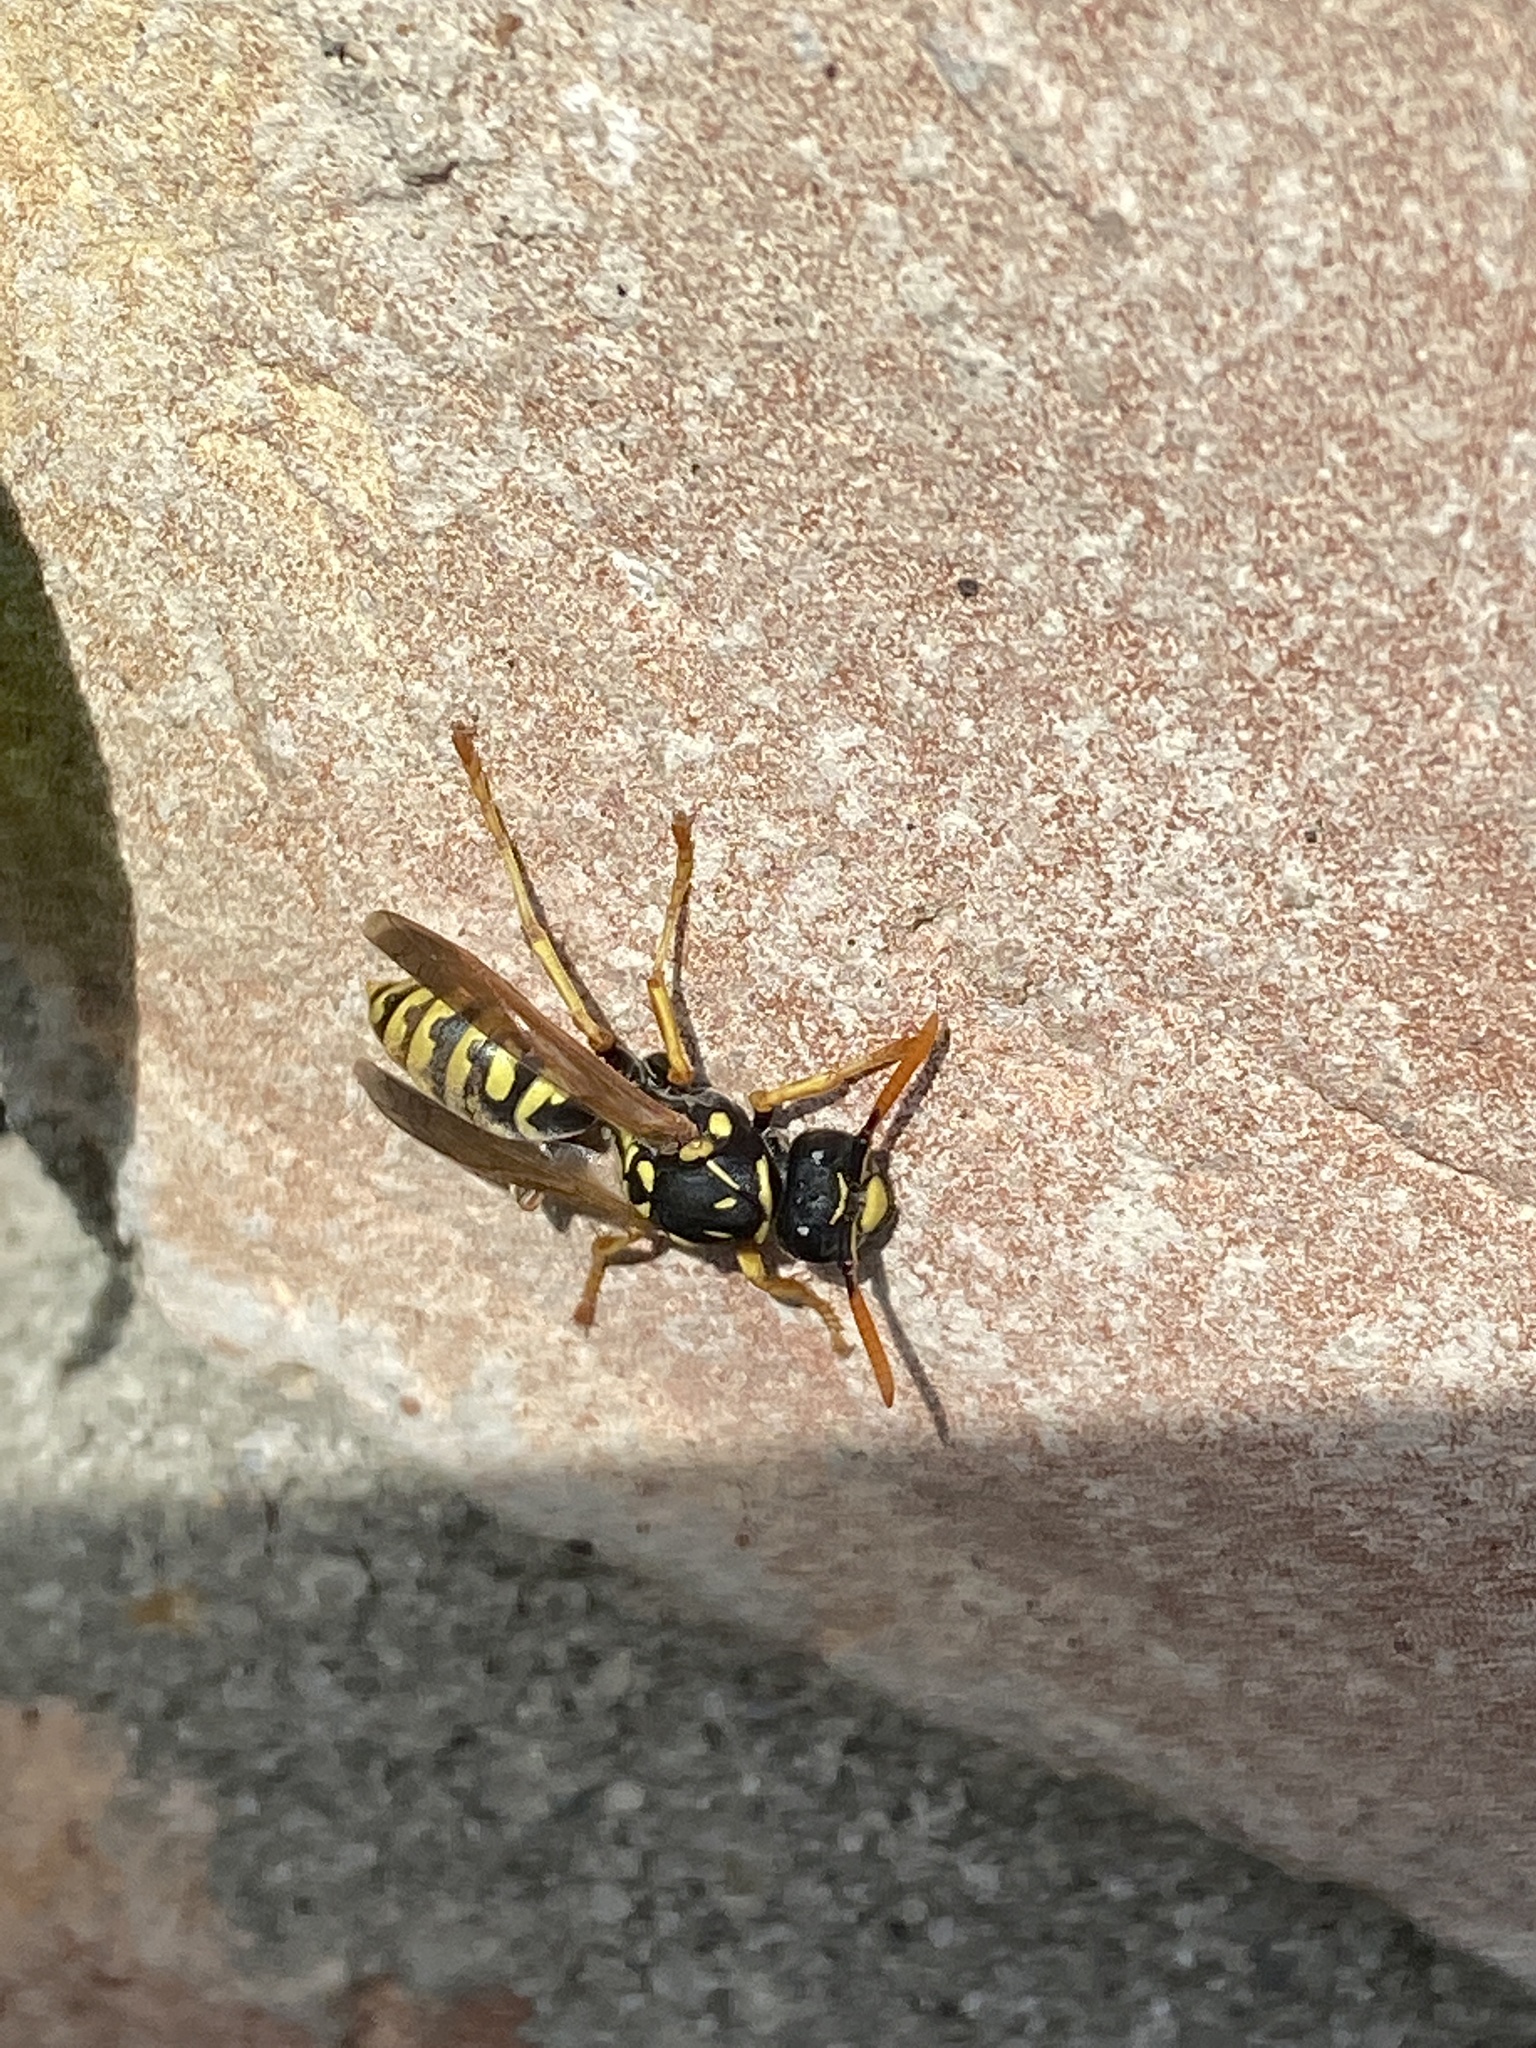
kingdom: Animalia
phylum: Arthropoda
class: Insecta
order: Hymenoptera
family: Eumenidae
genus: Polistes
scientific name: Polistes dominula
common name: Paper wasp
